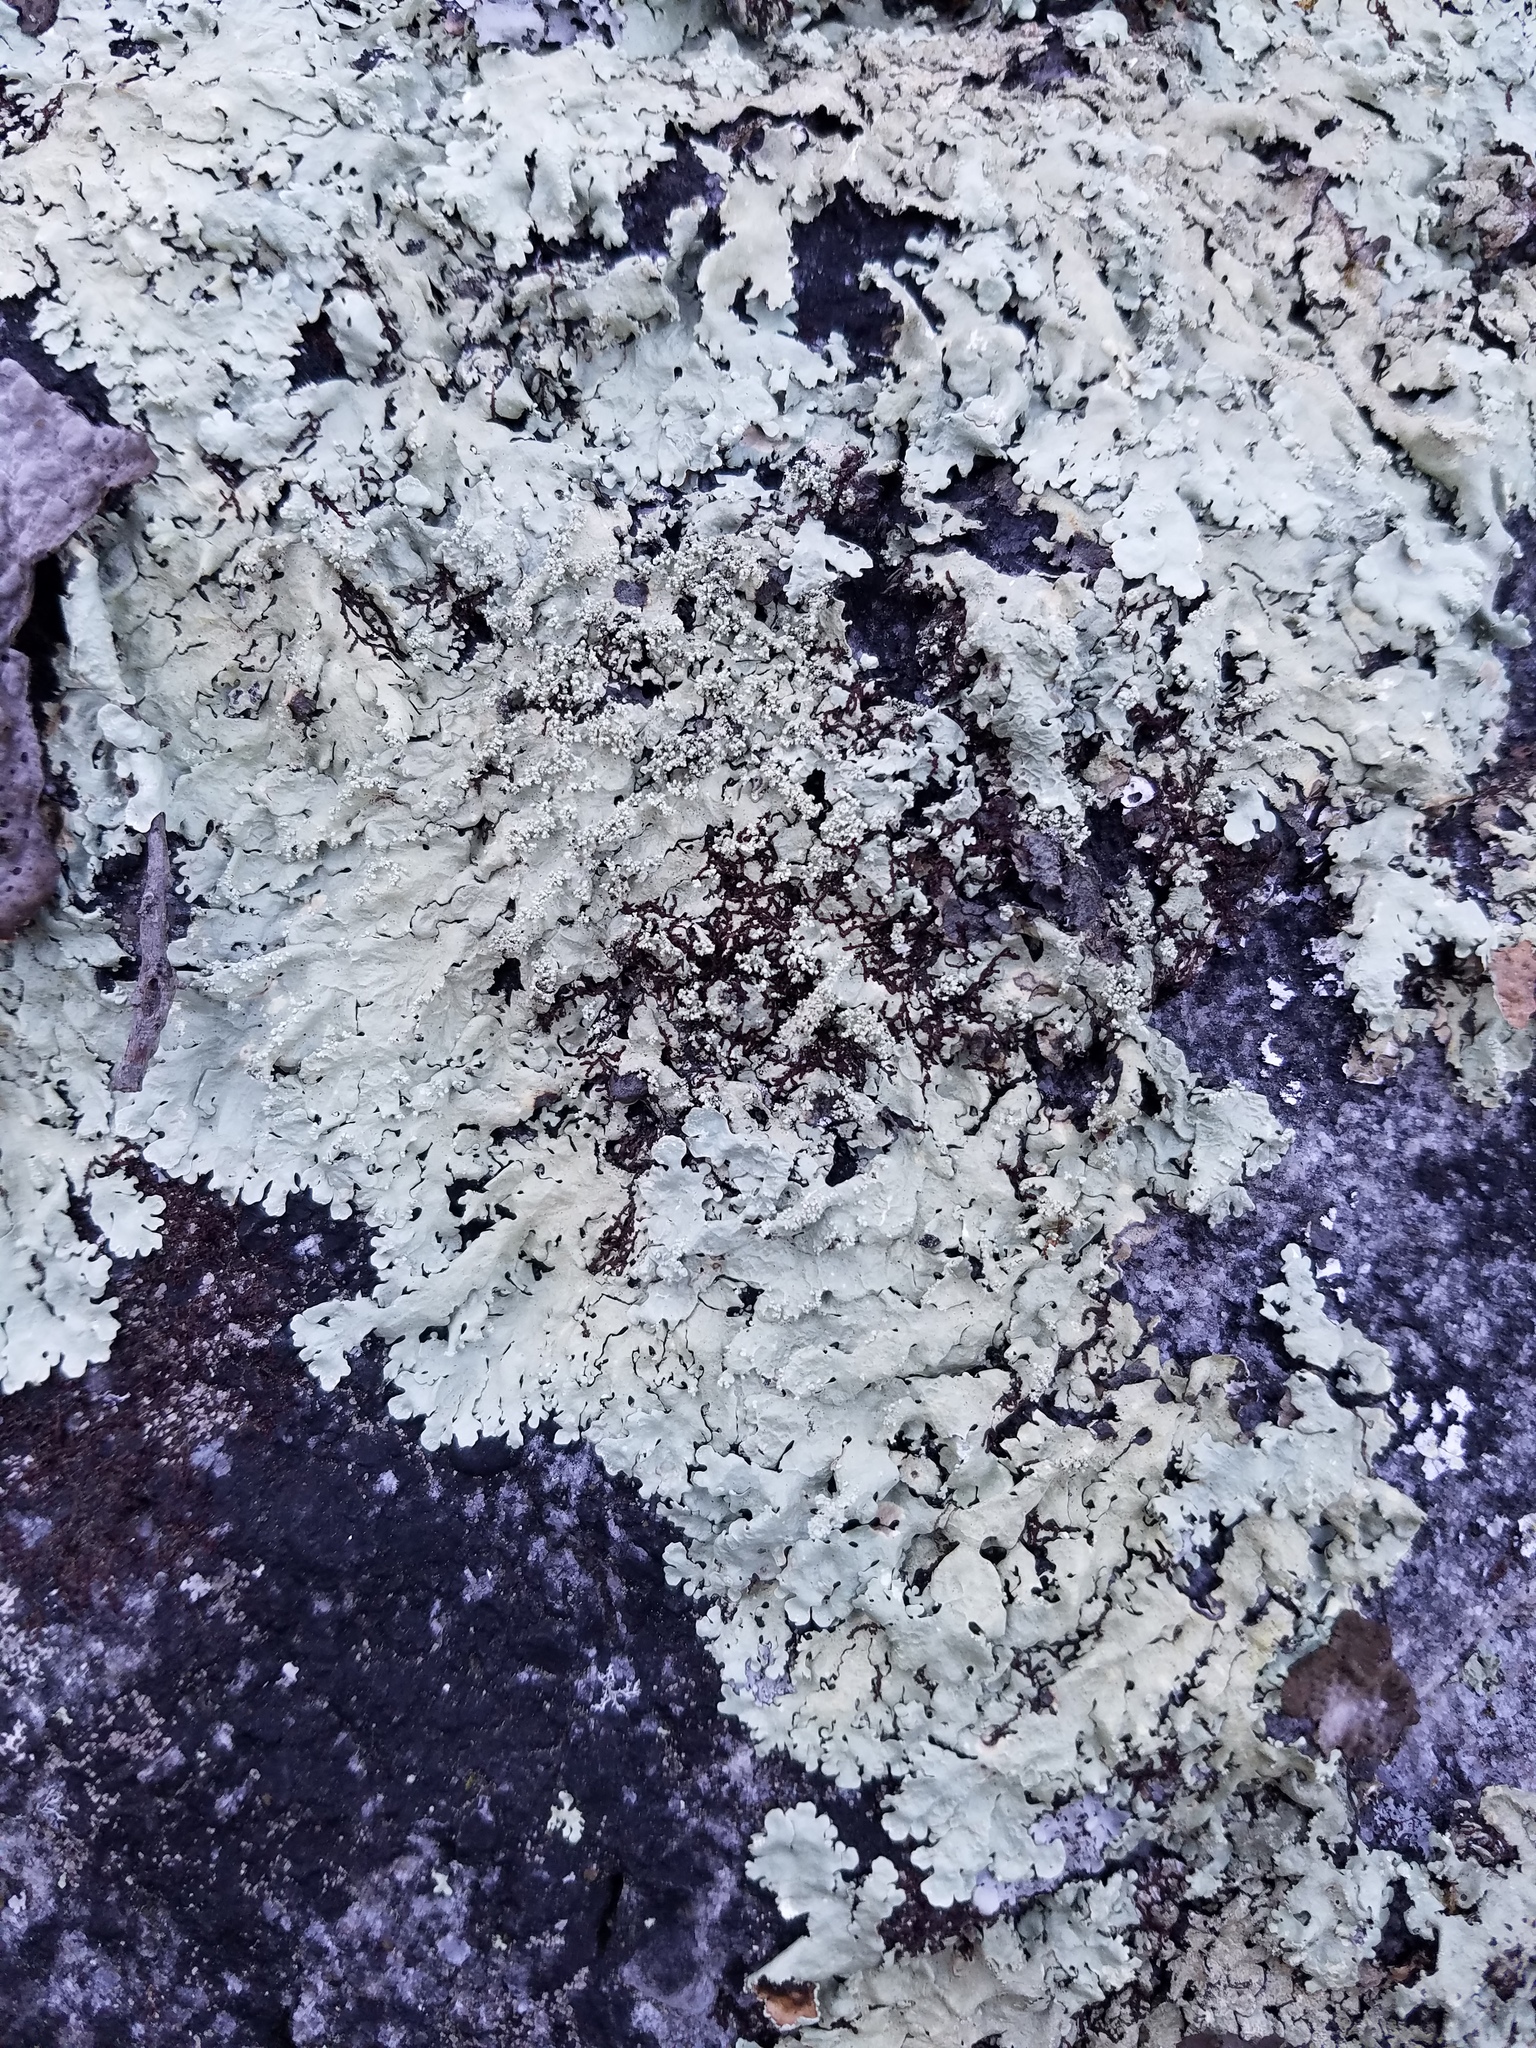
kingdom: Fungi
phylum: Ascomycota
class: Lecanoromycetes
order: Lecanorales
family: Parmeliaceae
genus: Flavoparmelia
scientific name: Flavoparmelia baltimorensis
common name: Rock greenshield
